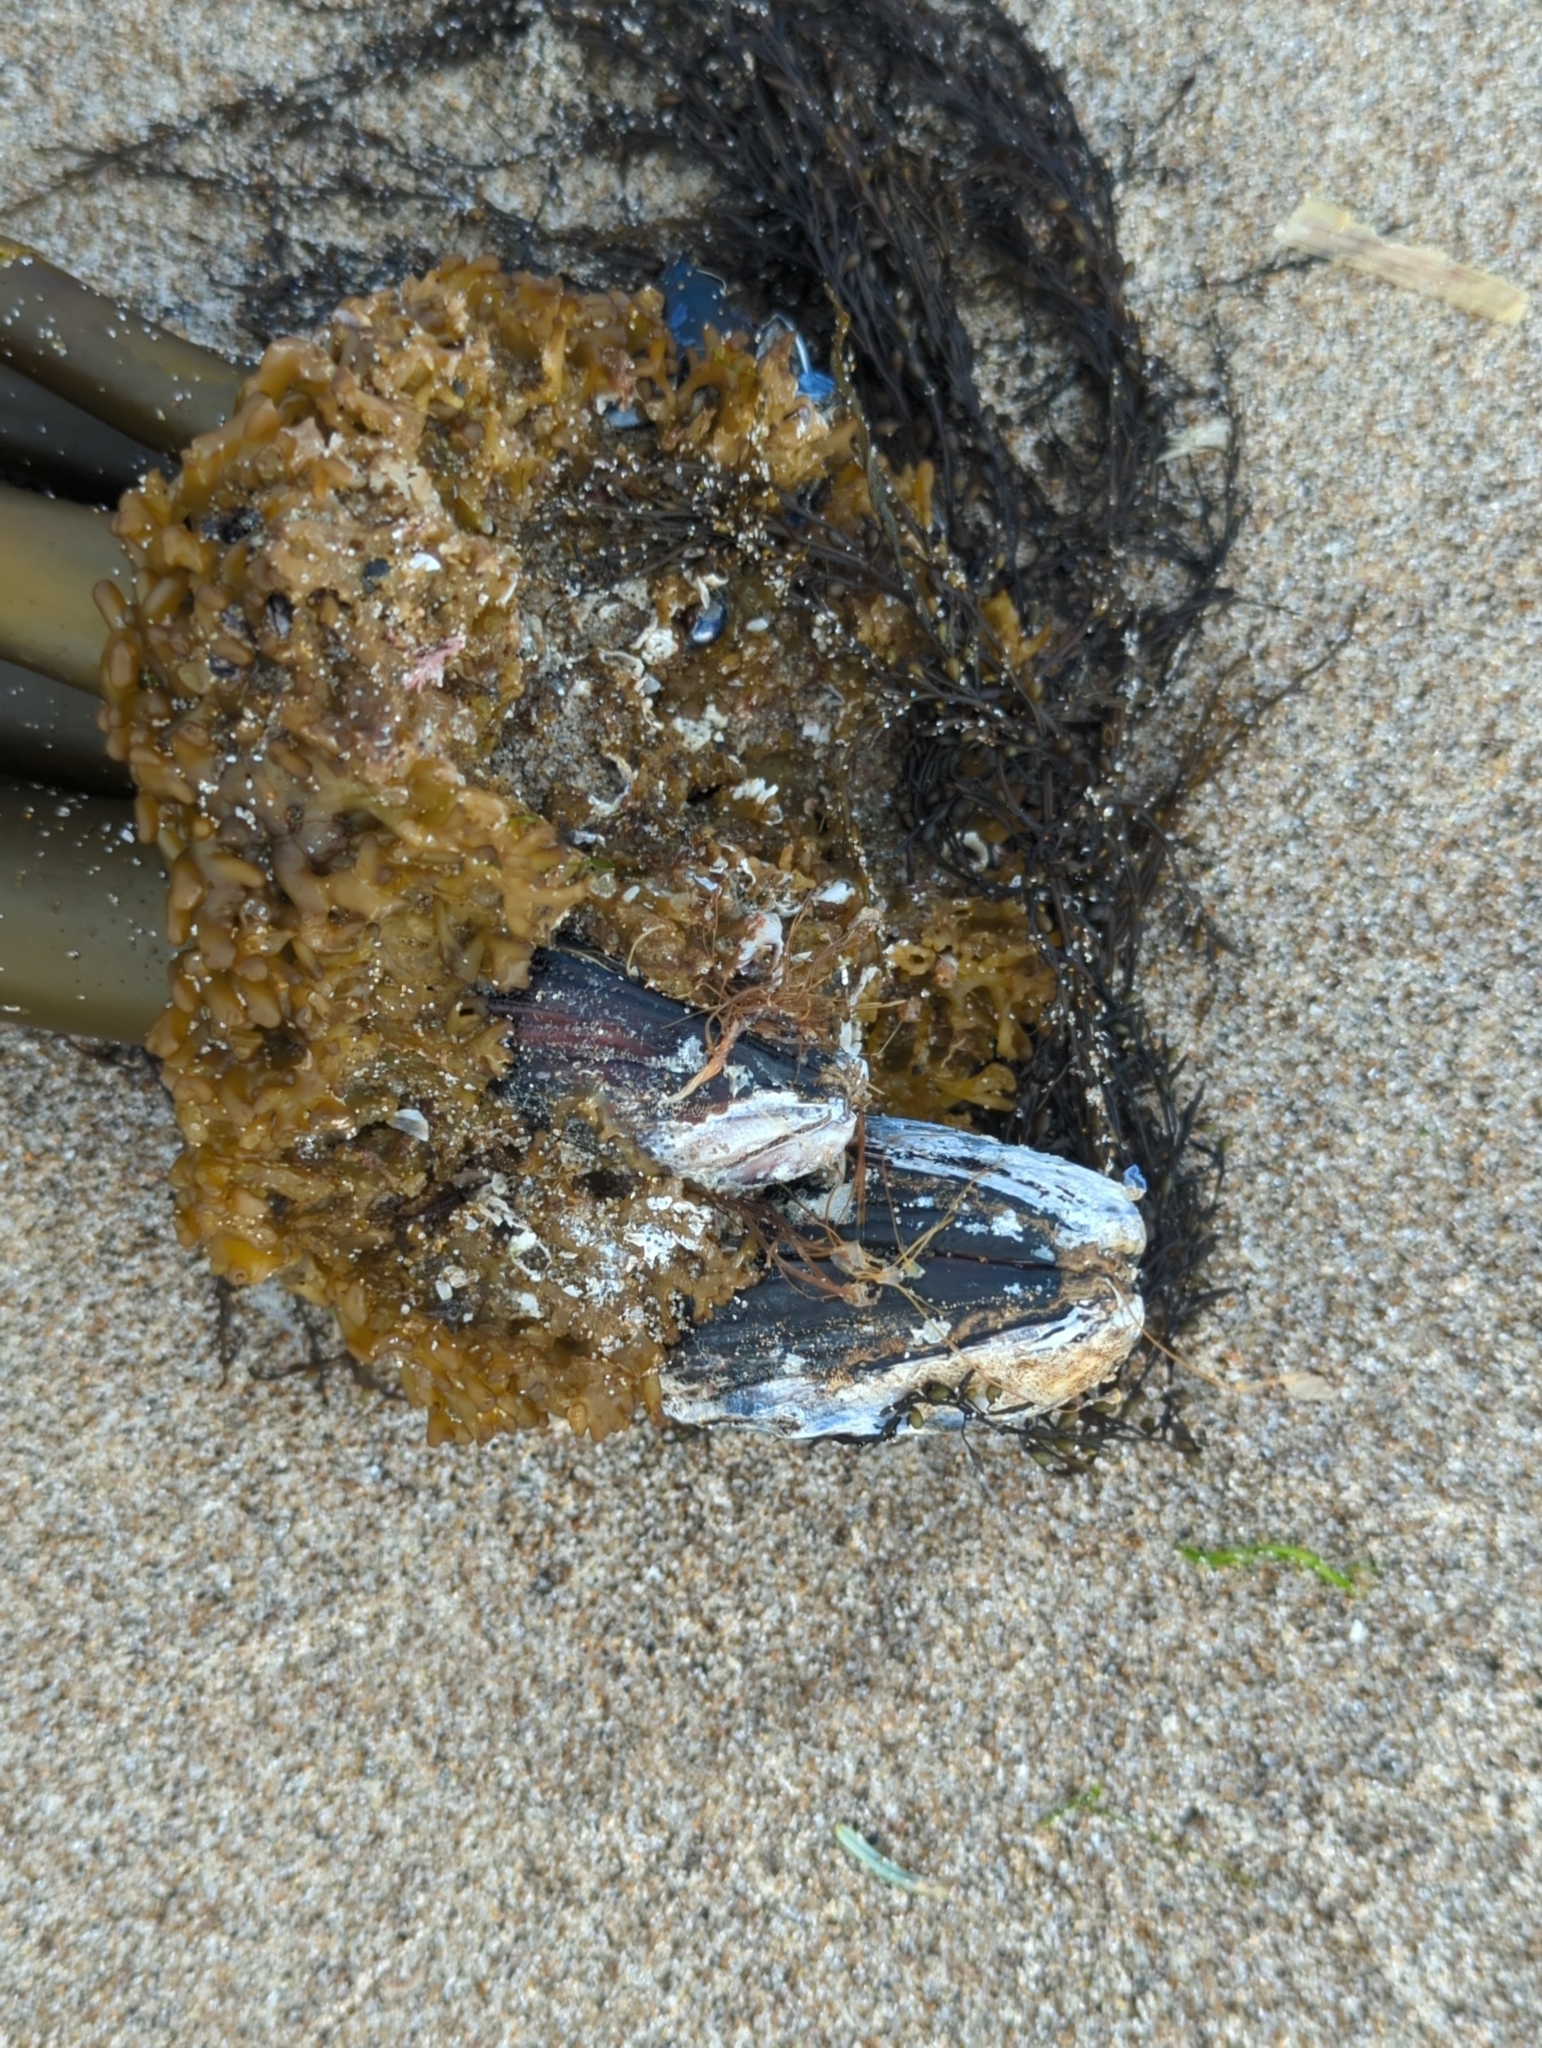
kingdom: Animalia
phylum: Mollusca
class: Bivalvia
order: Mytilida
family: Mytilidae
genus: Mytilus
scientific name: Mytilus californianus
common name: California mussel
